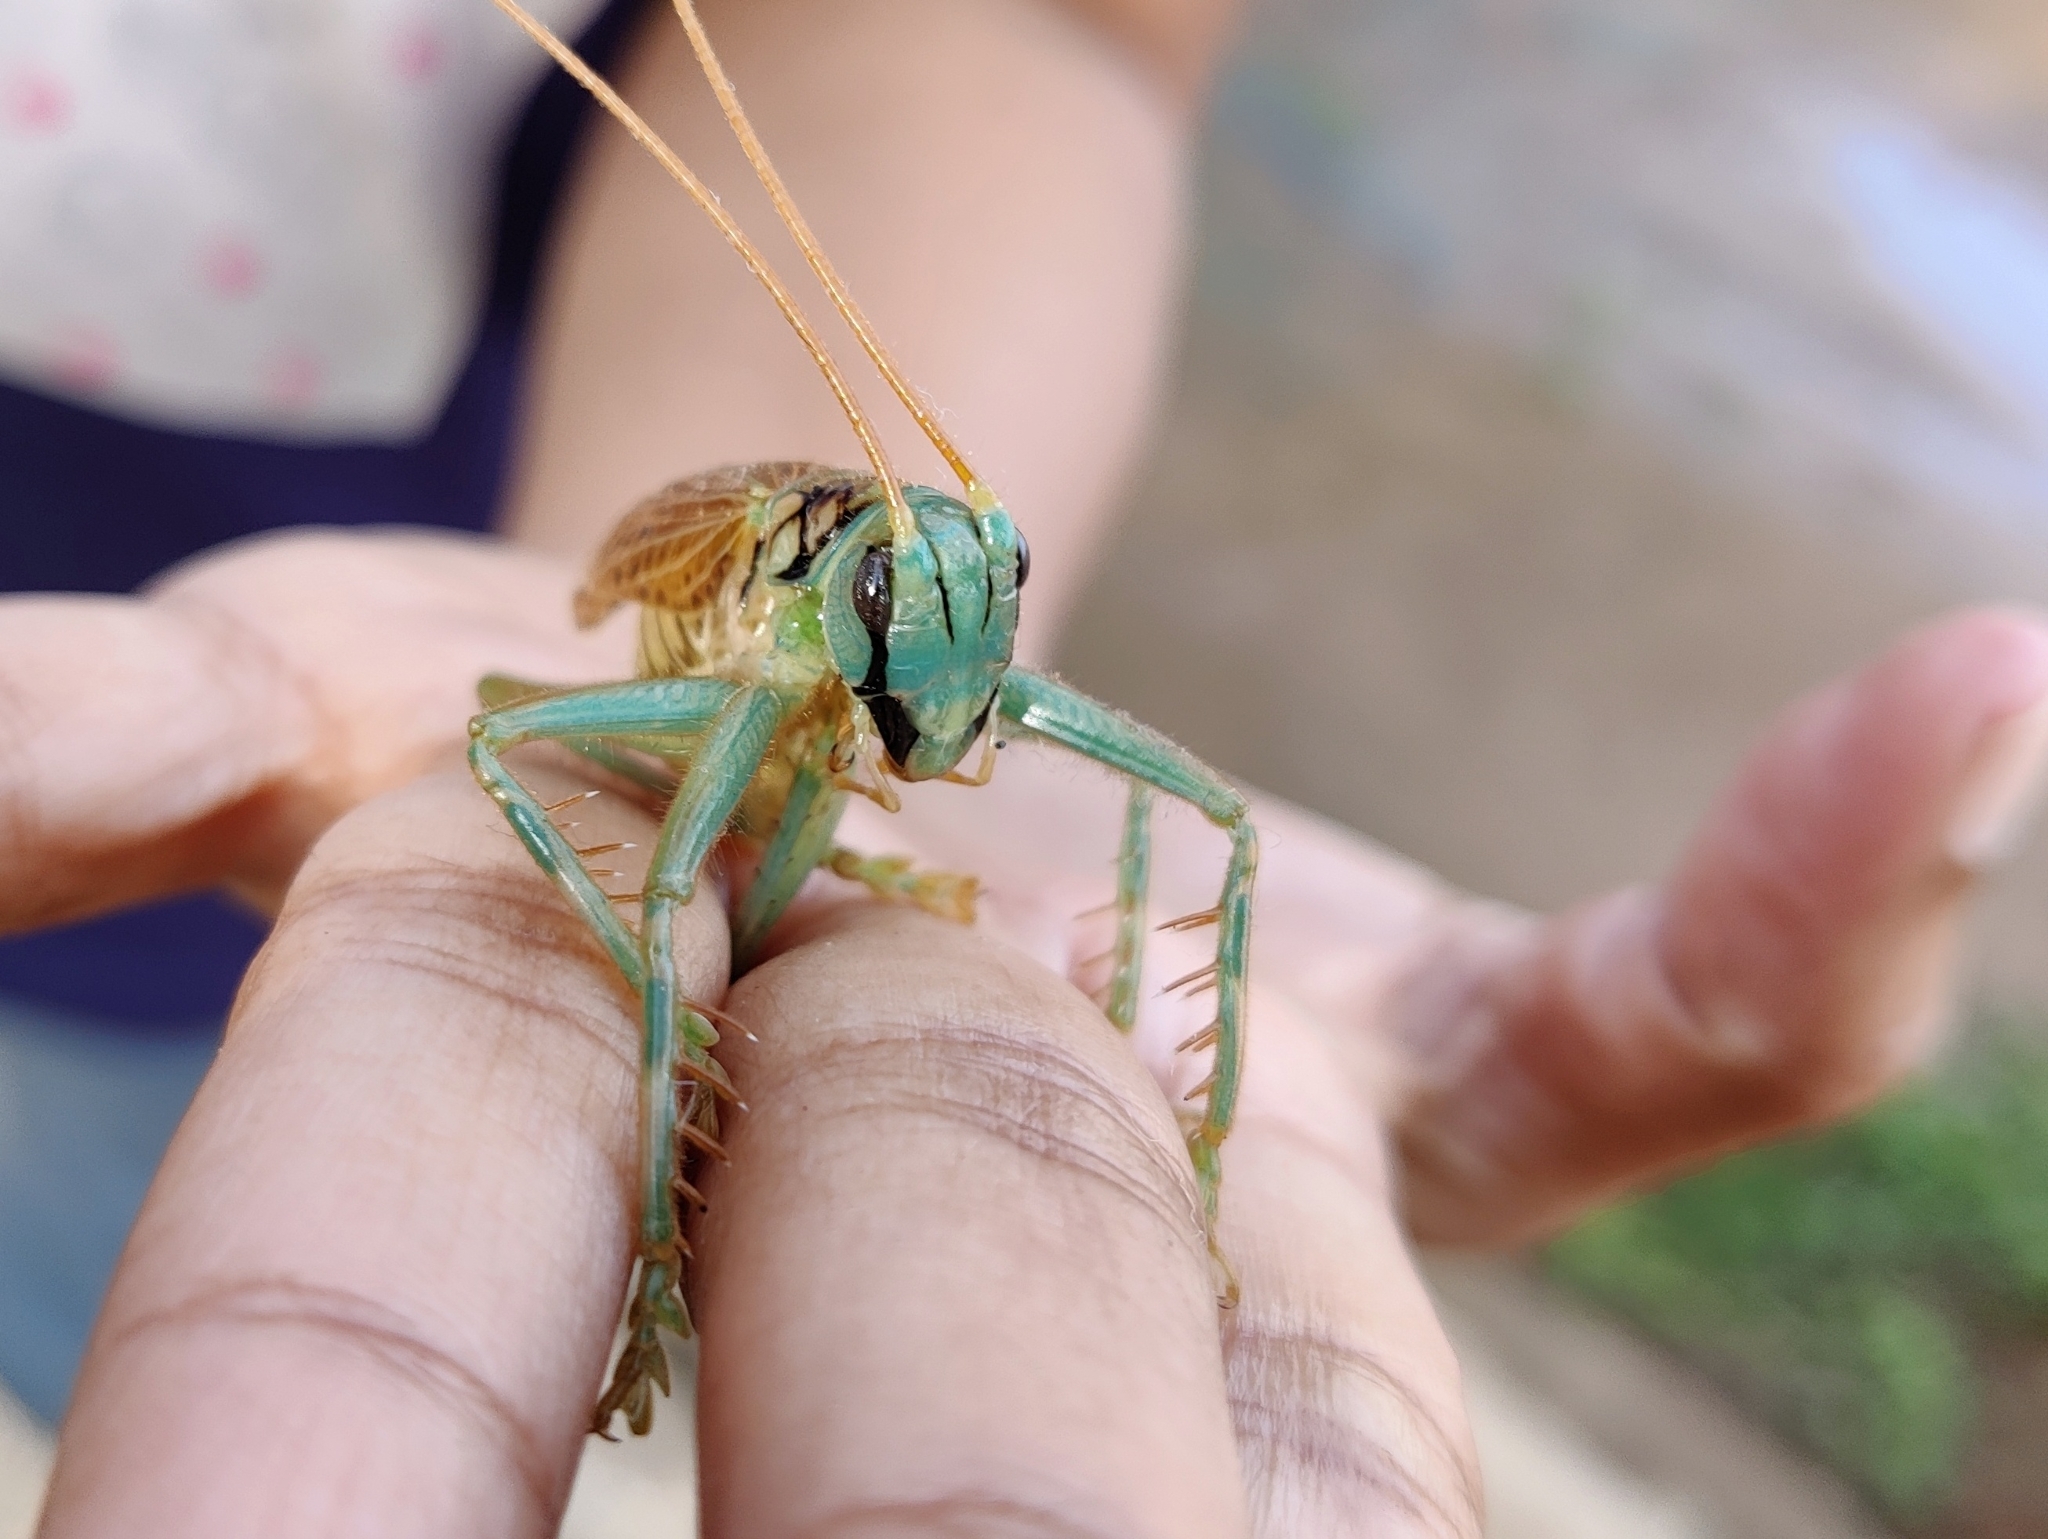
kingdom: Animalia
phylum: Arthropoda
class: Insecta
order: Orthoptera
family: Gryllacrididae
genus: Eugryllacris
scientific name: Eugryllacris panteli
